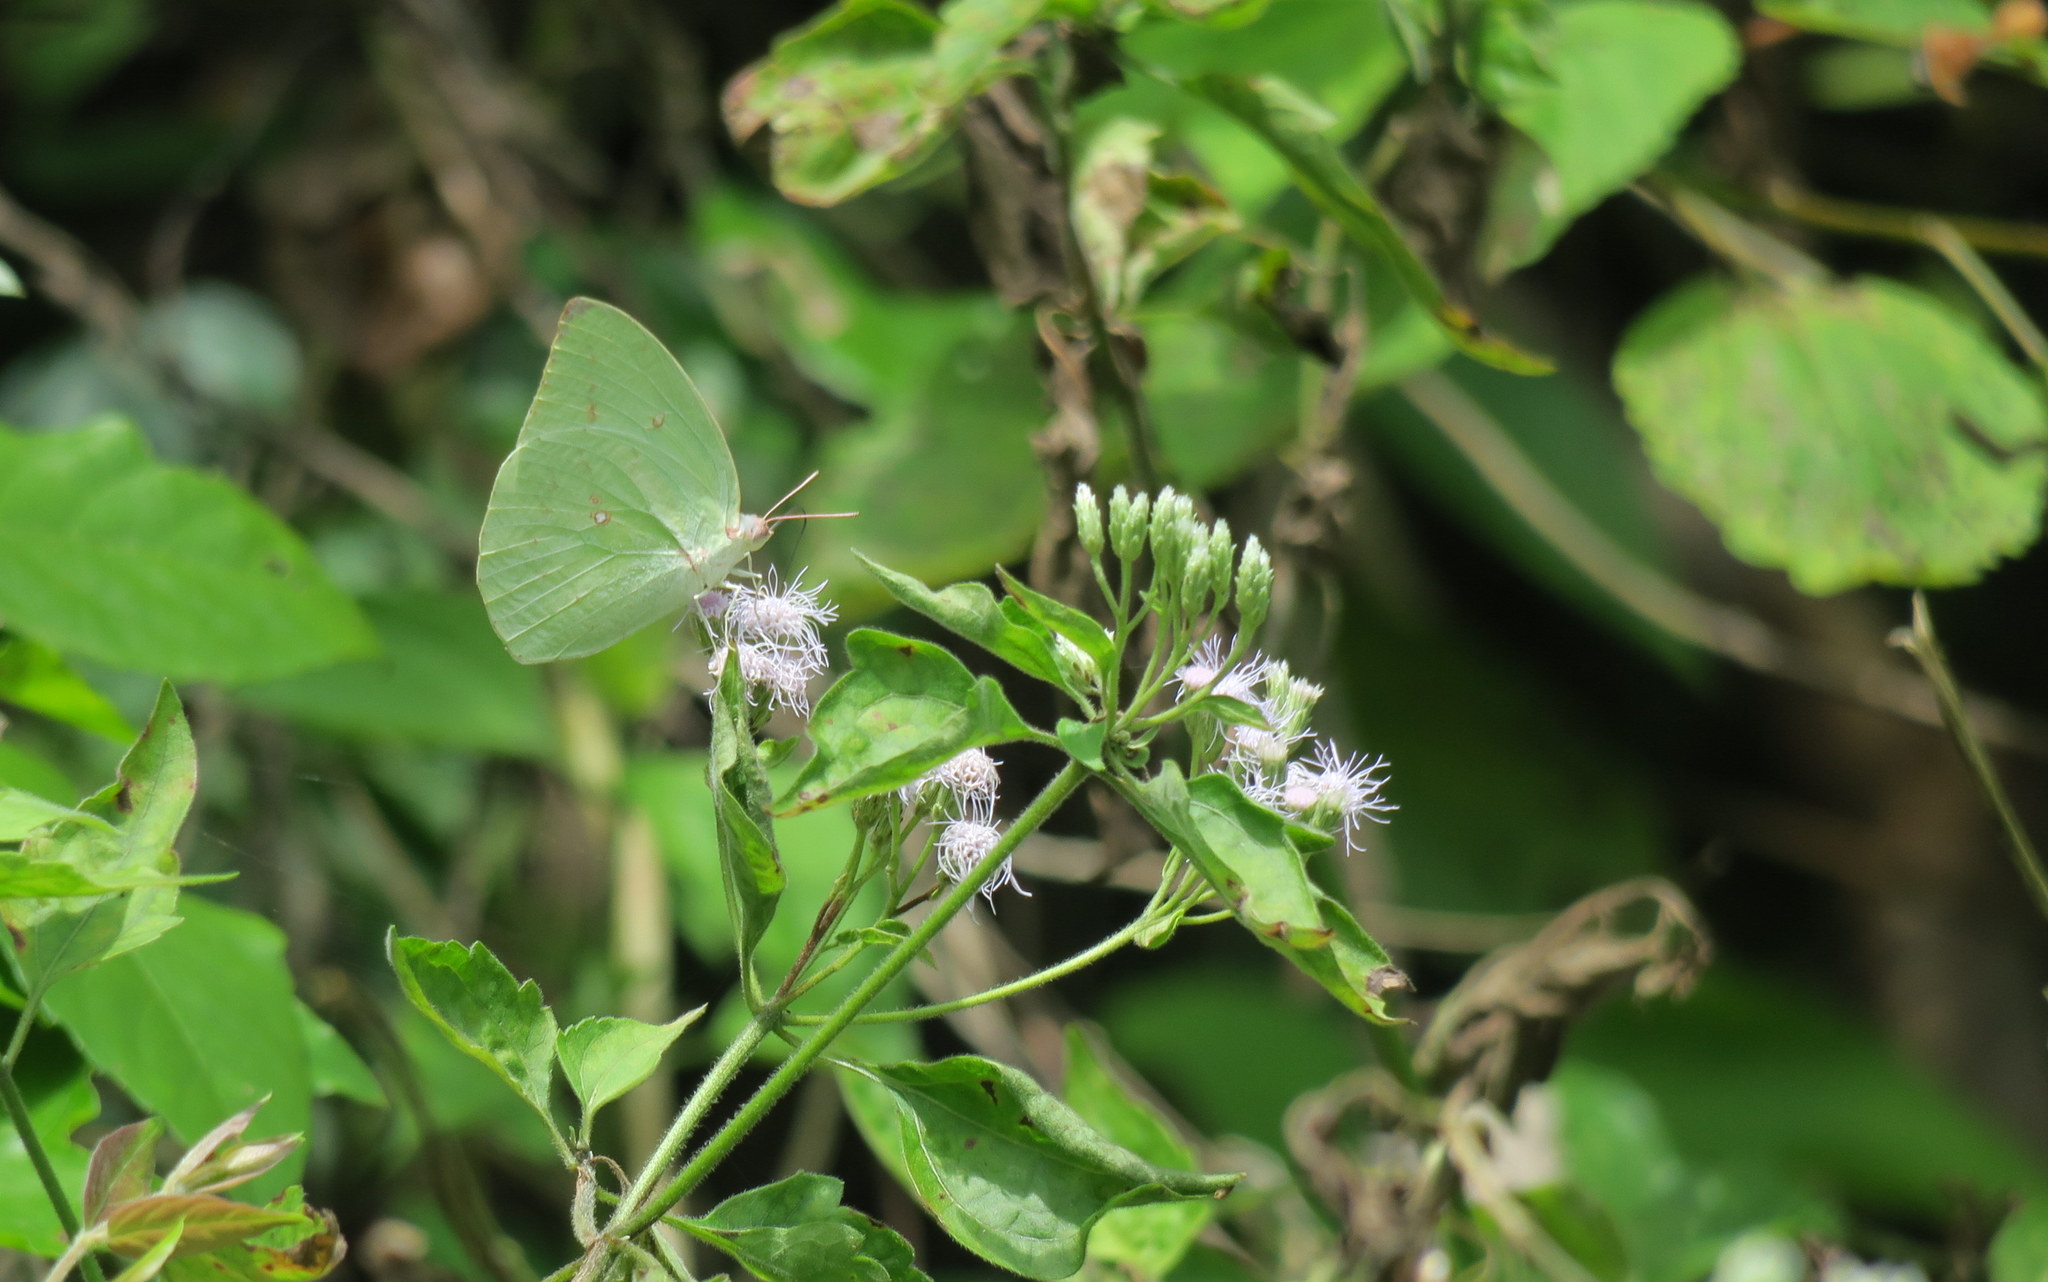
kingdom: Animalia
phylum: Arthropoda
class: Insecta
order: Lepidoptera
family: Pieridae
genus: Catopsilia
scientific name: Catopsilia pomona
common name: Common emigrant
